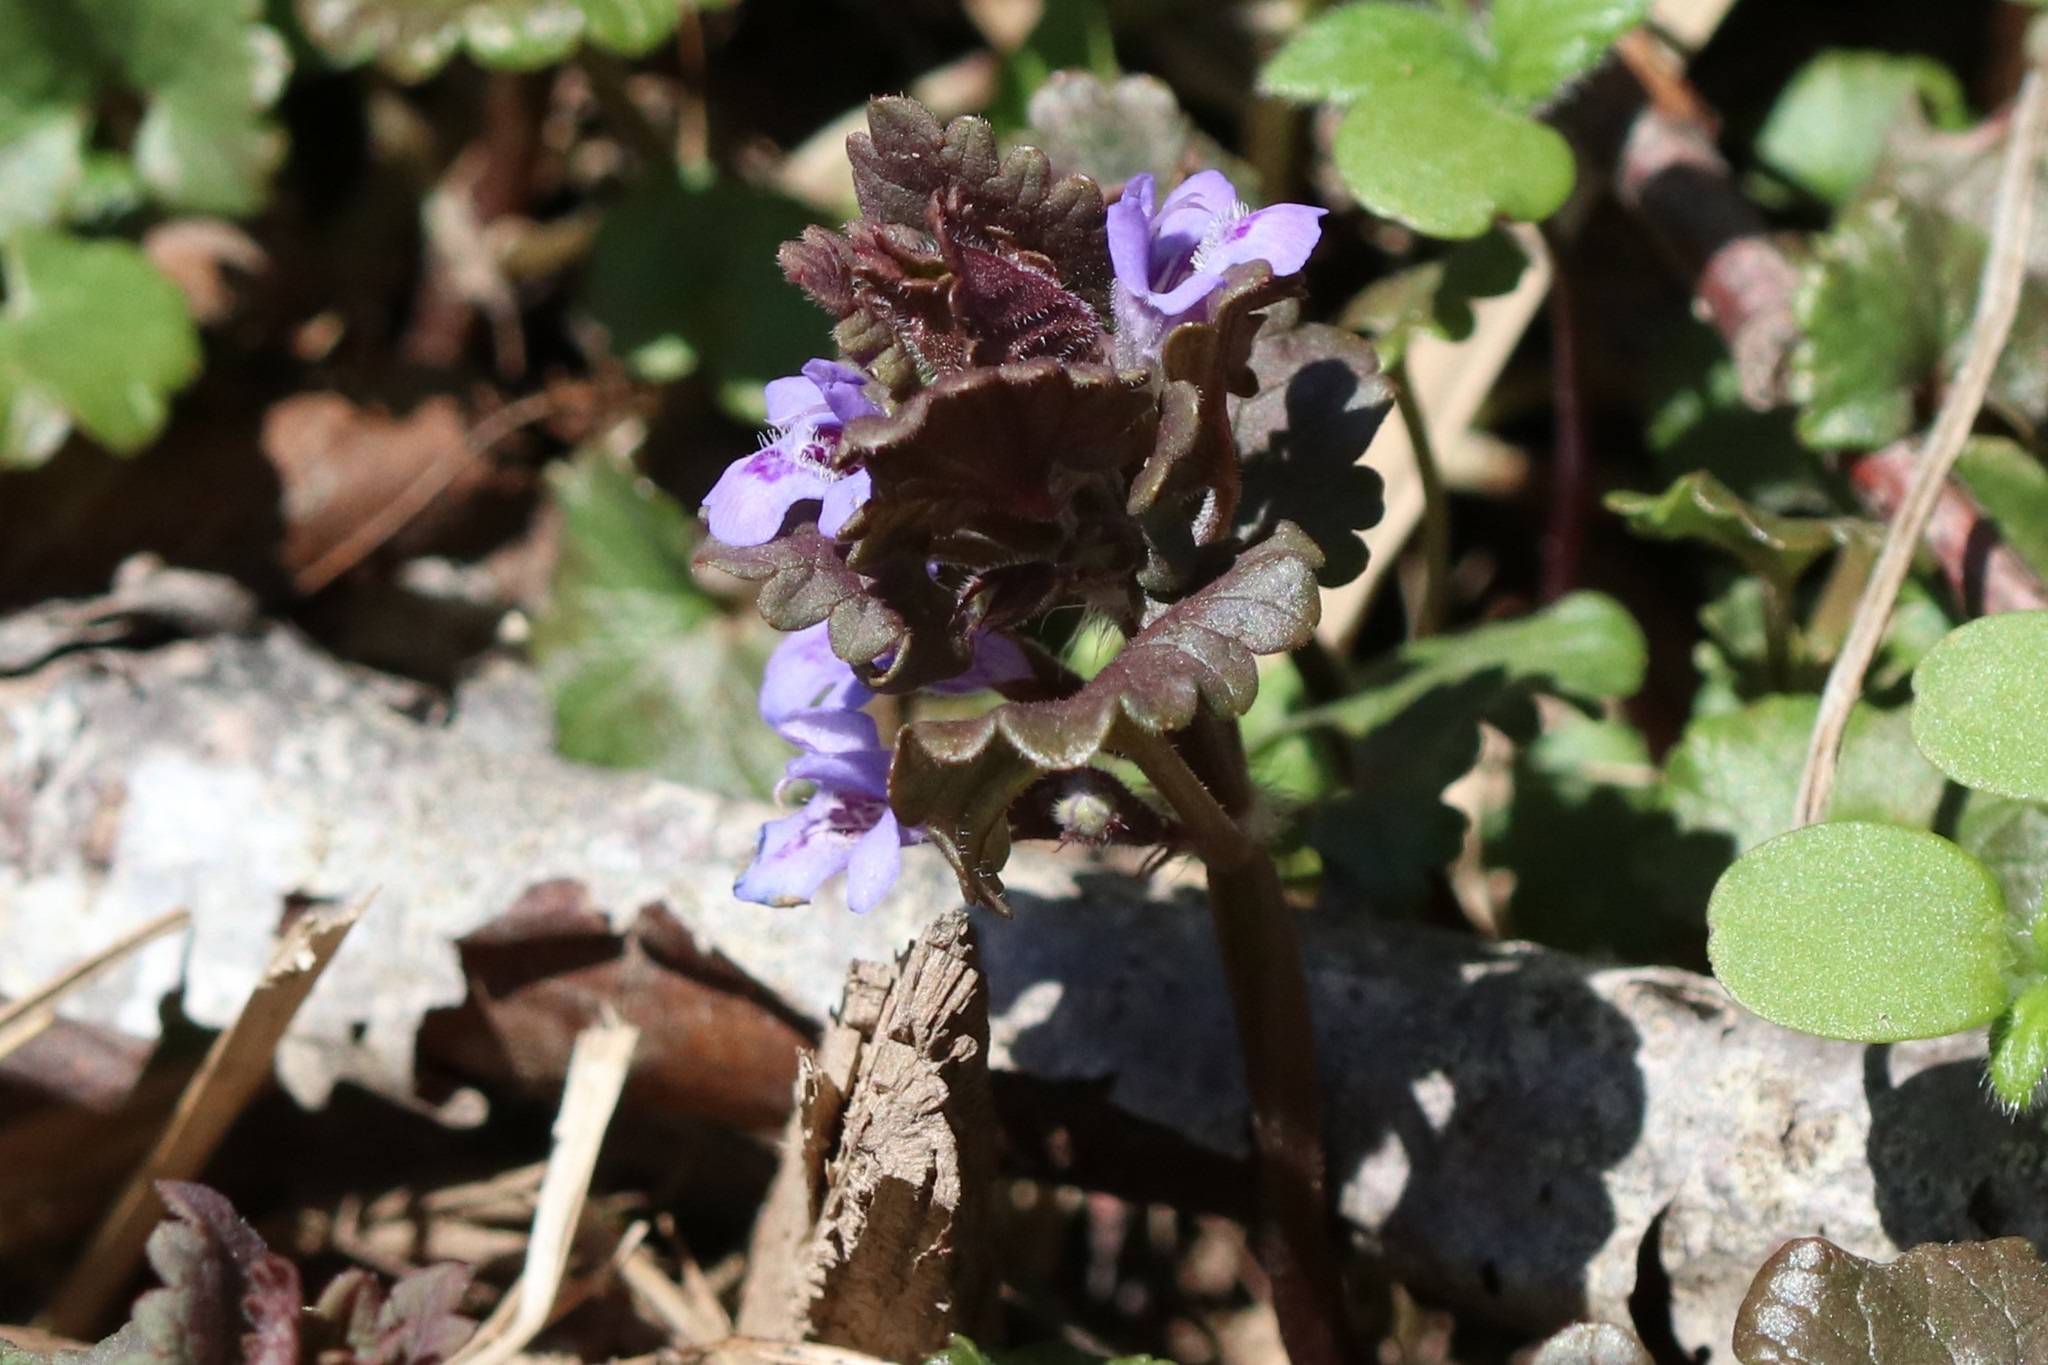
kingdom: Plantae
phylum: Tracheophyta
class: Magnoliopsida
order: Lamiales
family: Lamiaceae
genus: Glechoma
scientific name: Glechoma hederacea
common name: Ground ivy
